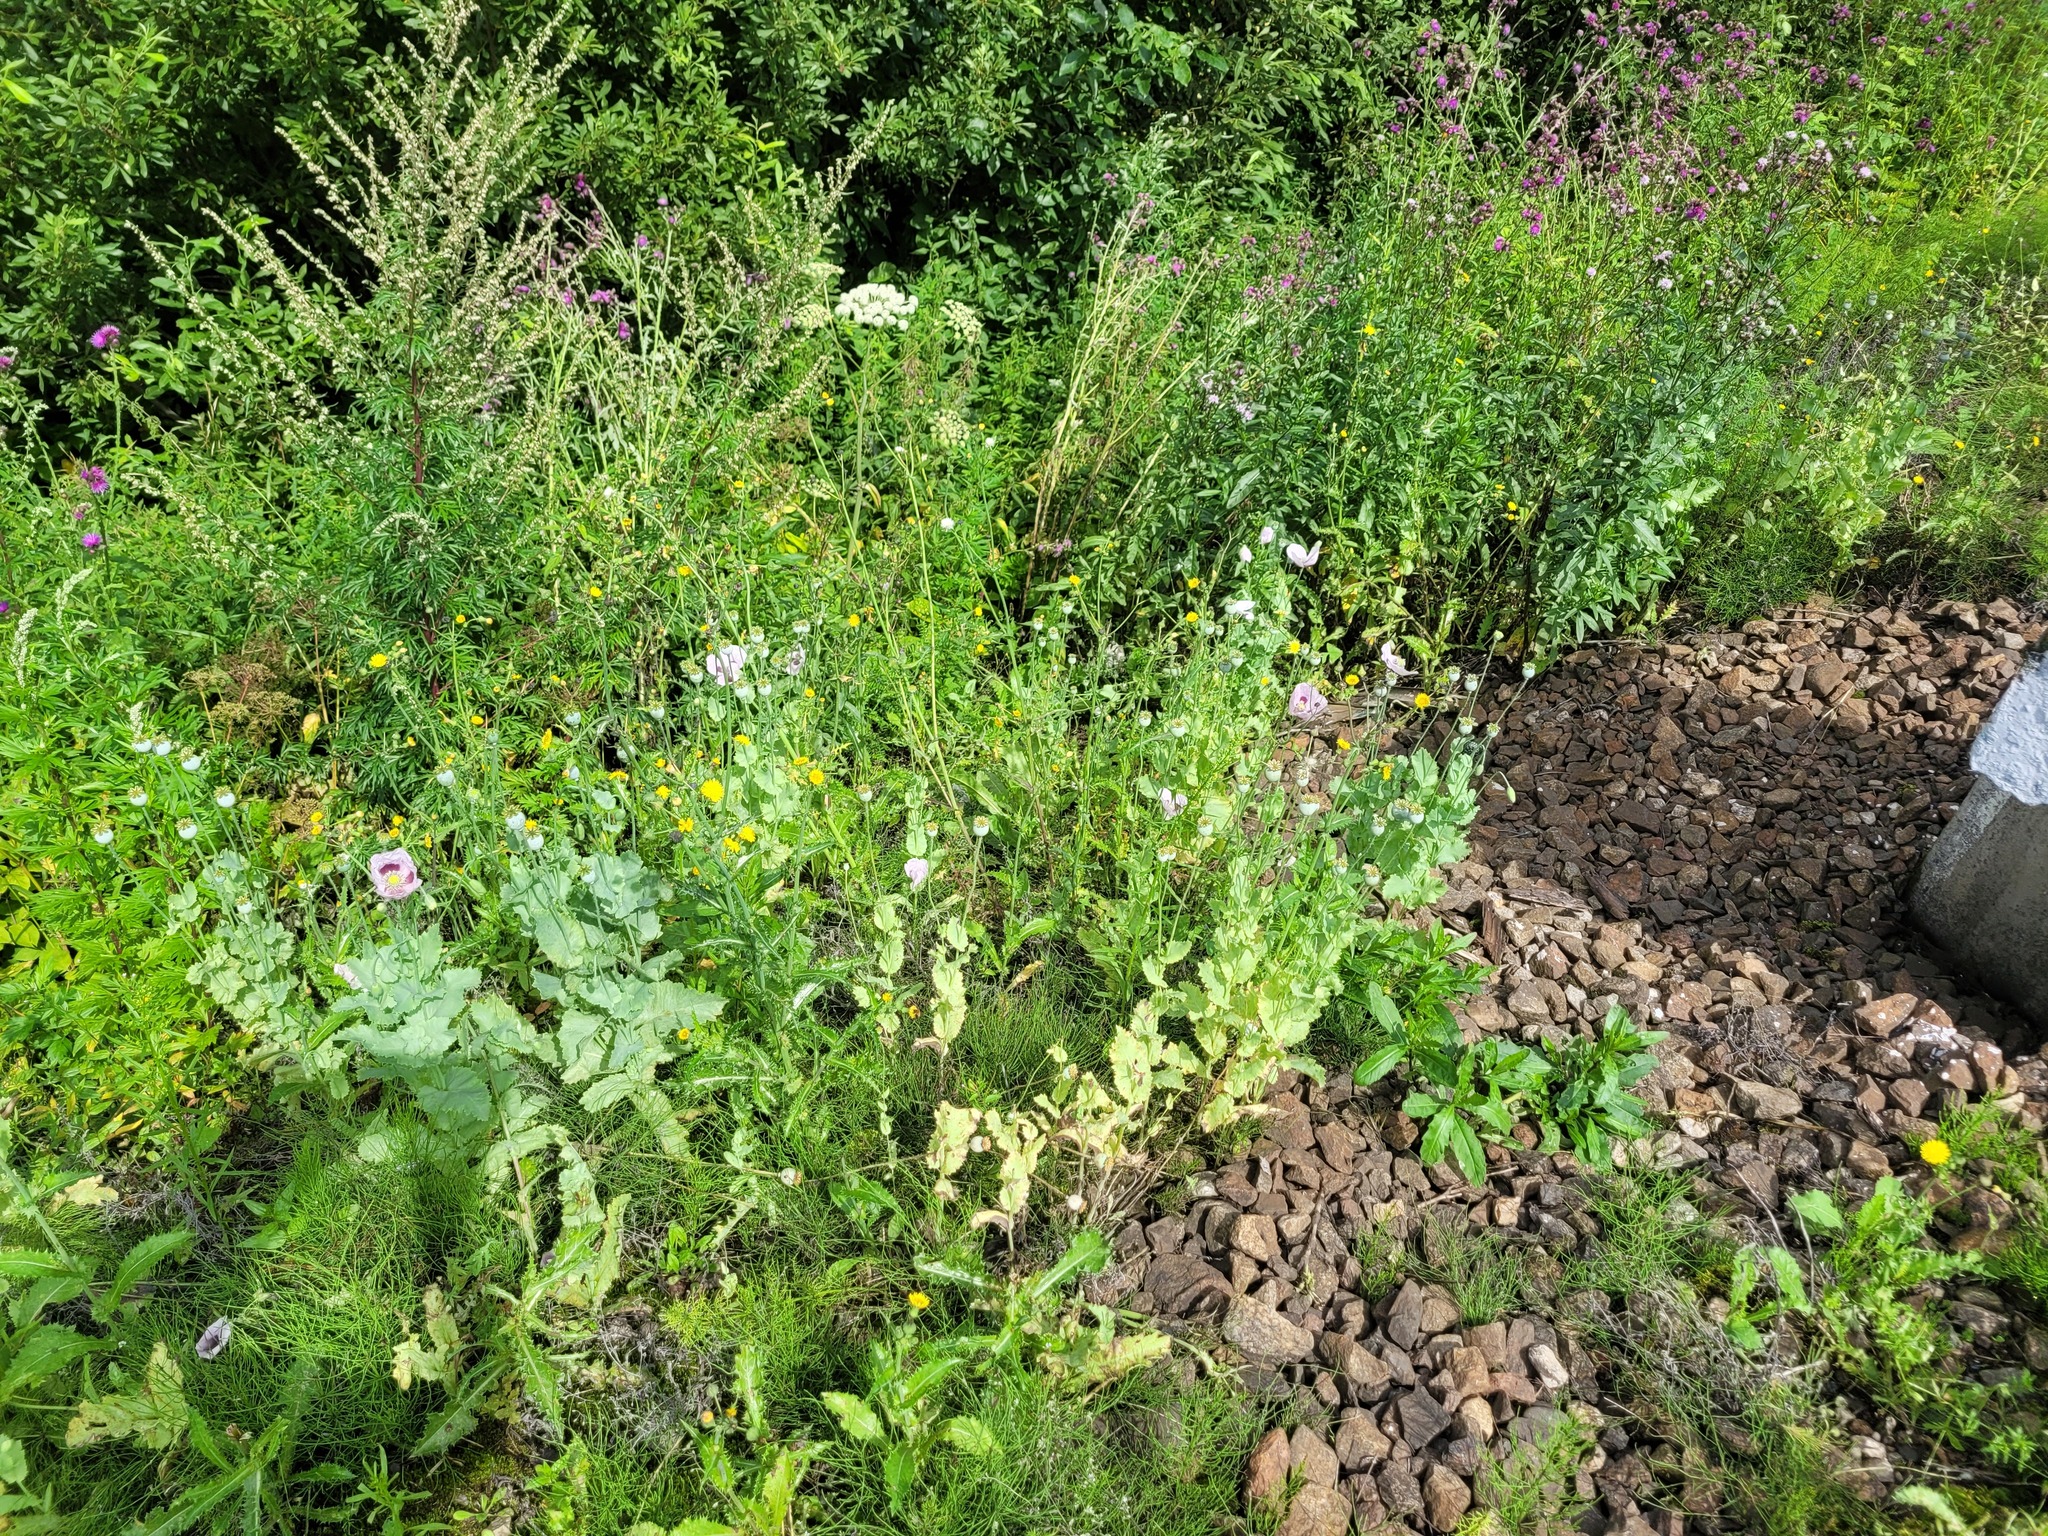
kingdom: Plantae
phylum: Tracheophyta
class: Magnoliopsida
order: Ranunculales
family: Papaveraceae
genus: Papaver
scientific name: Papaver somniferum
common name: Opium poppy
